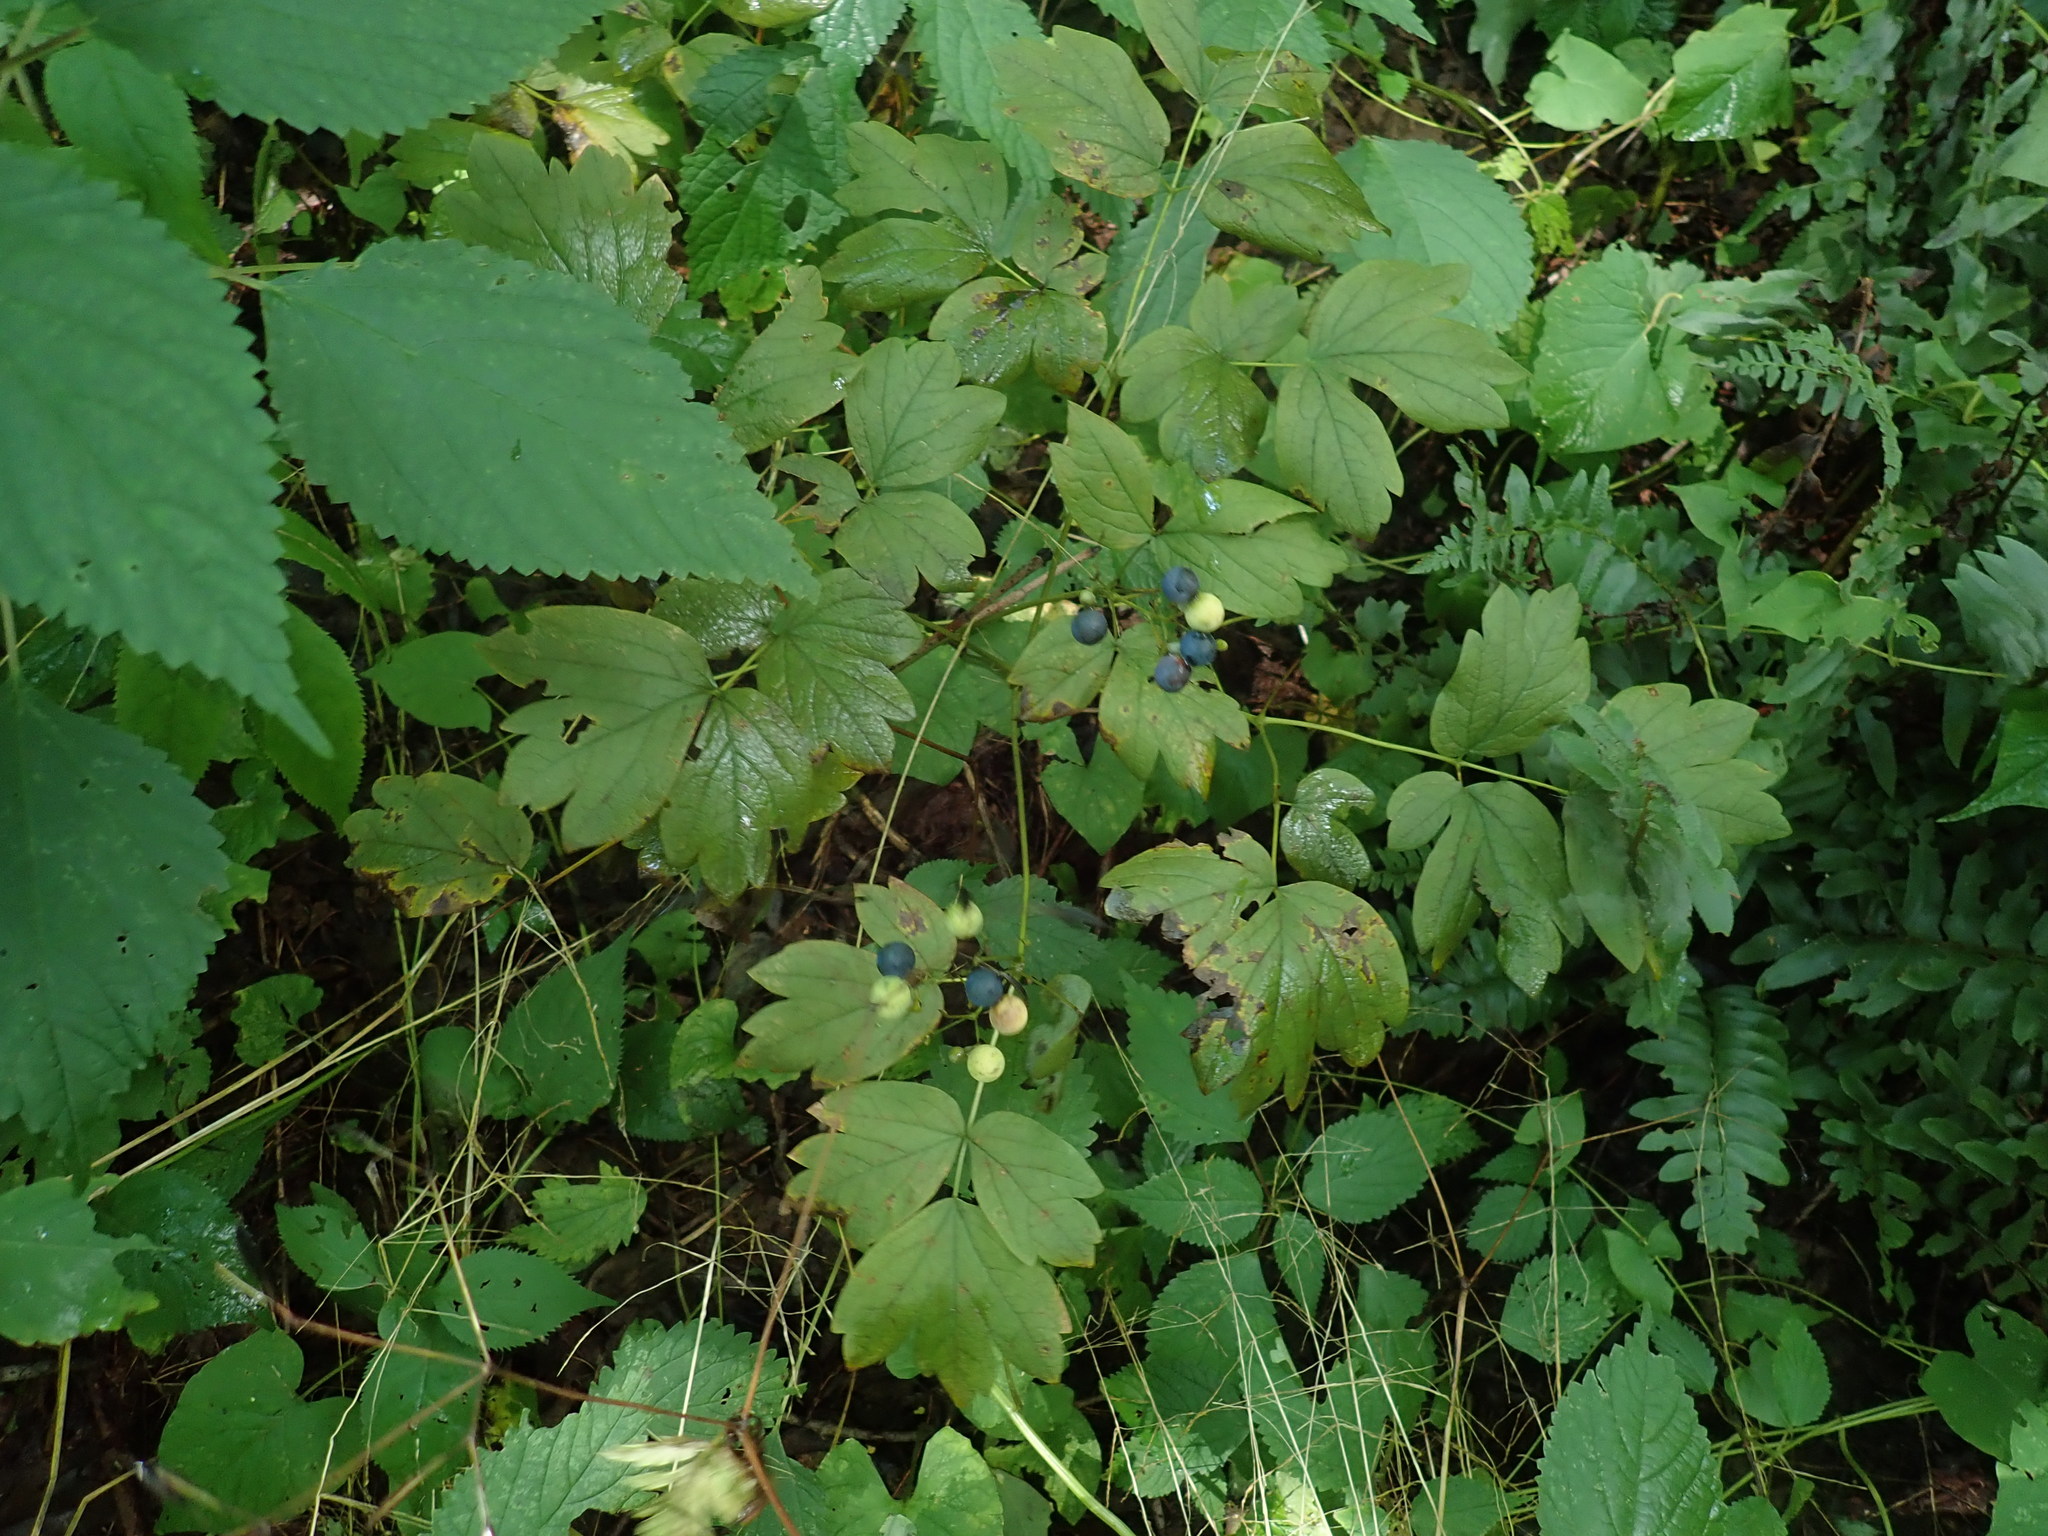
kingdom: Plantae
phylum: Tracheophyta
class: Magnoliopsida
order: Ranunculales
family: Berberidaceae
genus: Caulophyllum
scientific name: Caulophyllum
